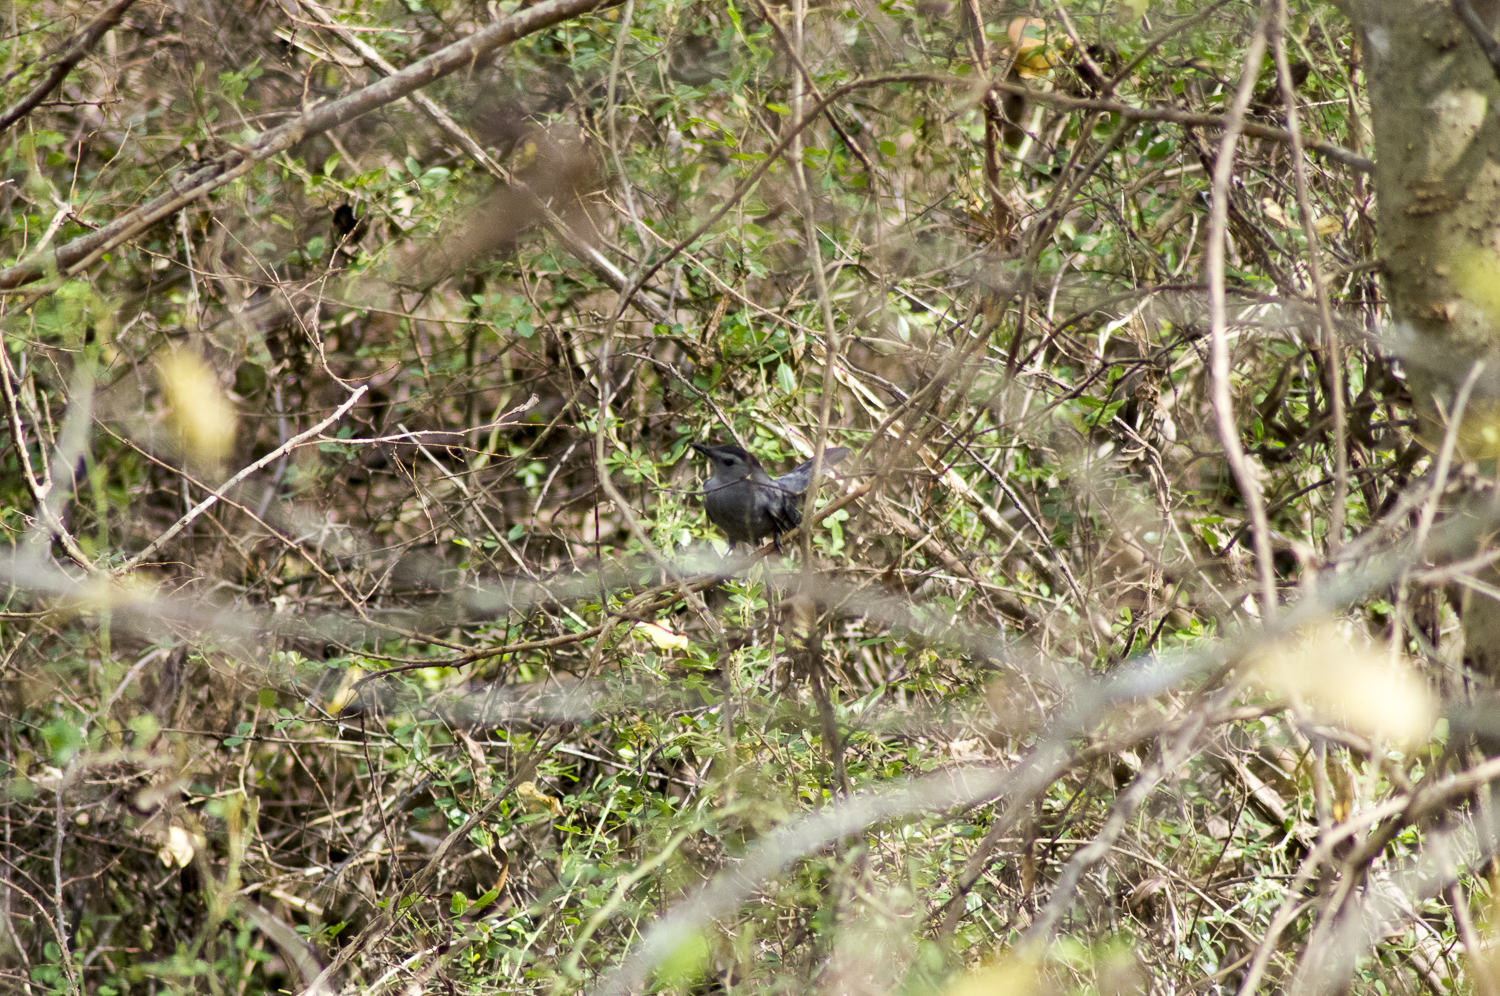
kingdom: Animalia
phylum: Chordata
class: Aves
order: Passeriformes
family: Mimidae
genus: Dumetella
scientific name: Dumetella carolinensis
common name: Gray catbird
